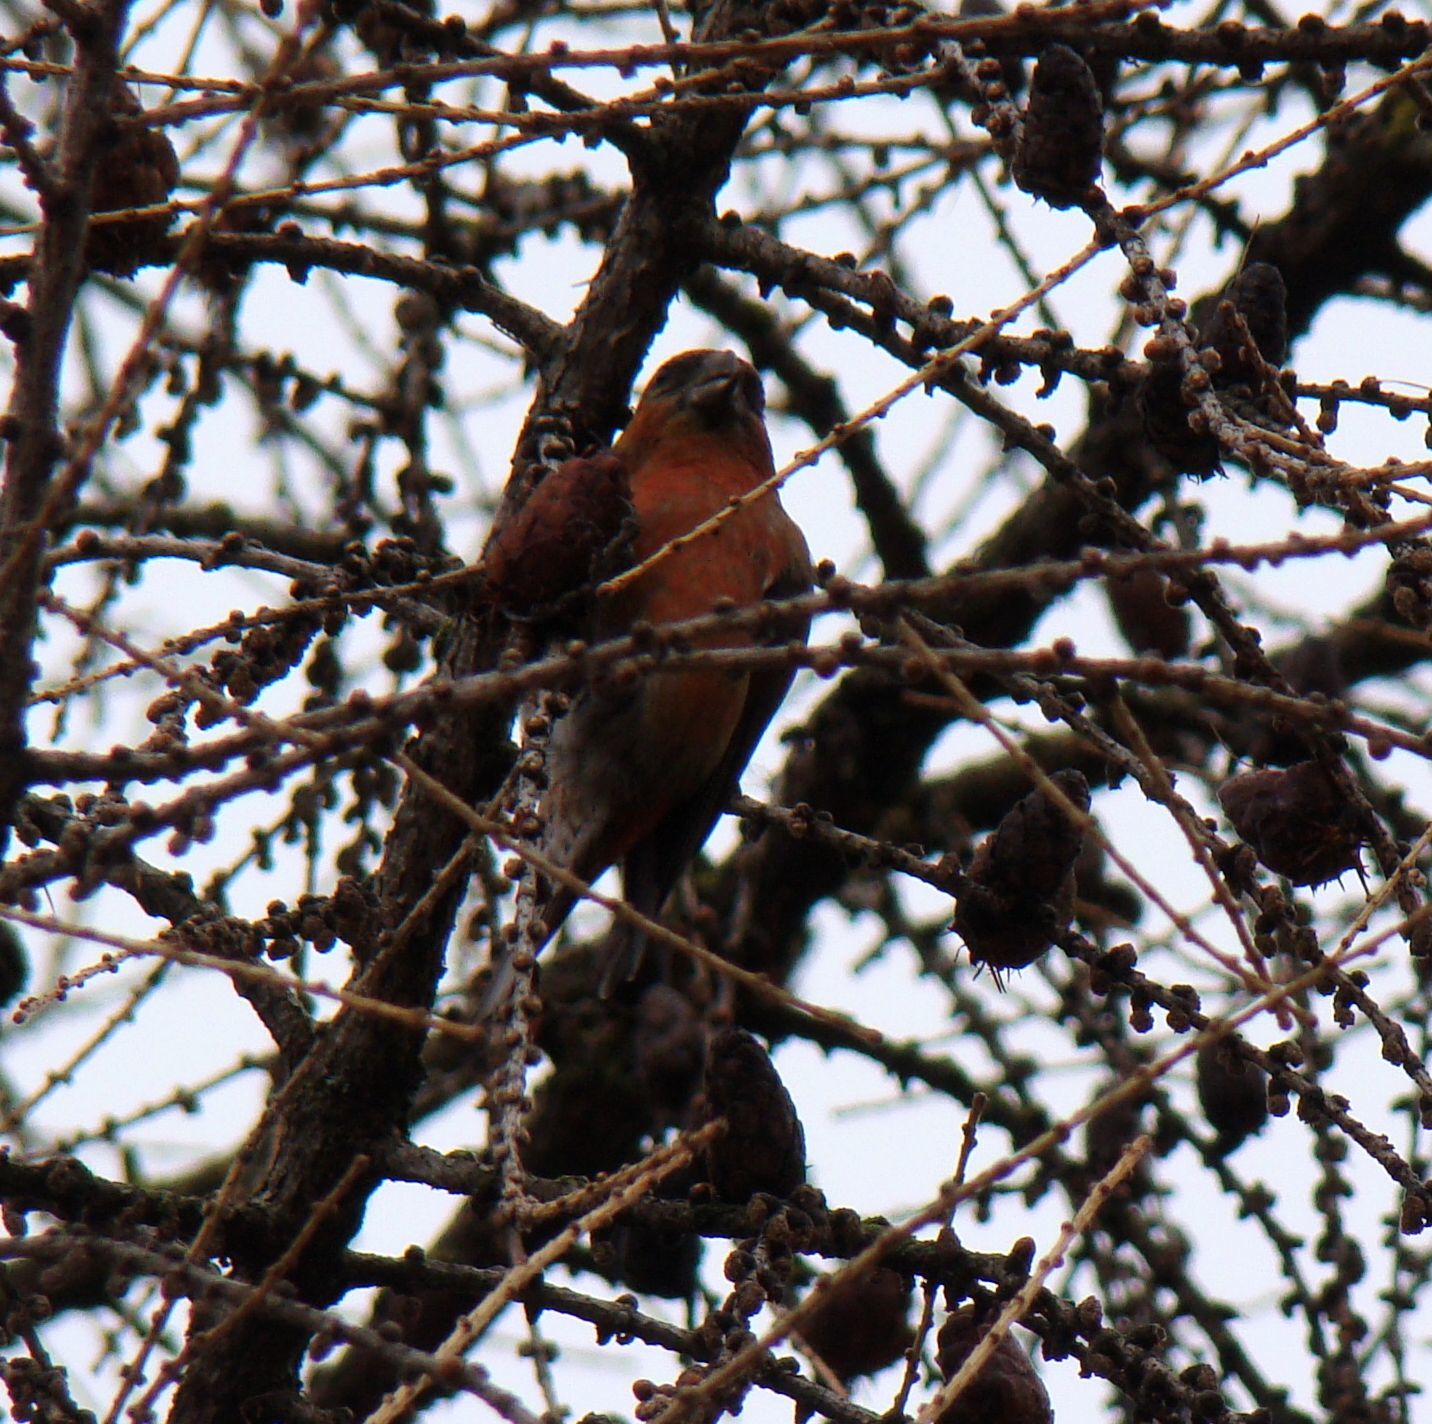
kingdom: Animalia
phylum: Chordata
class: Aves
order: Passeriformes
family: Fringillidae
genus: Loxia
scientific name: Loxia curvirostra
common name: Red crossbill
